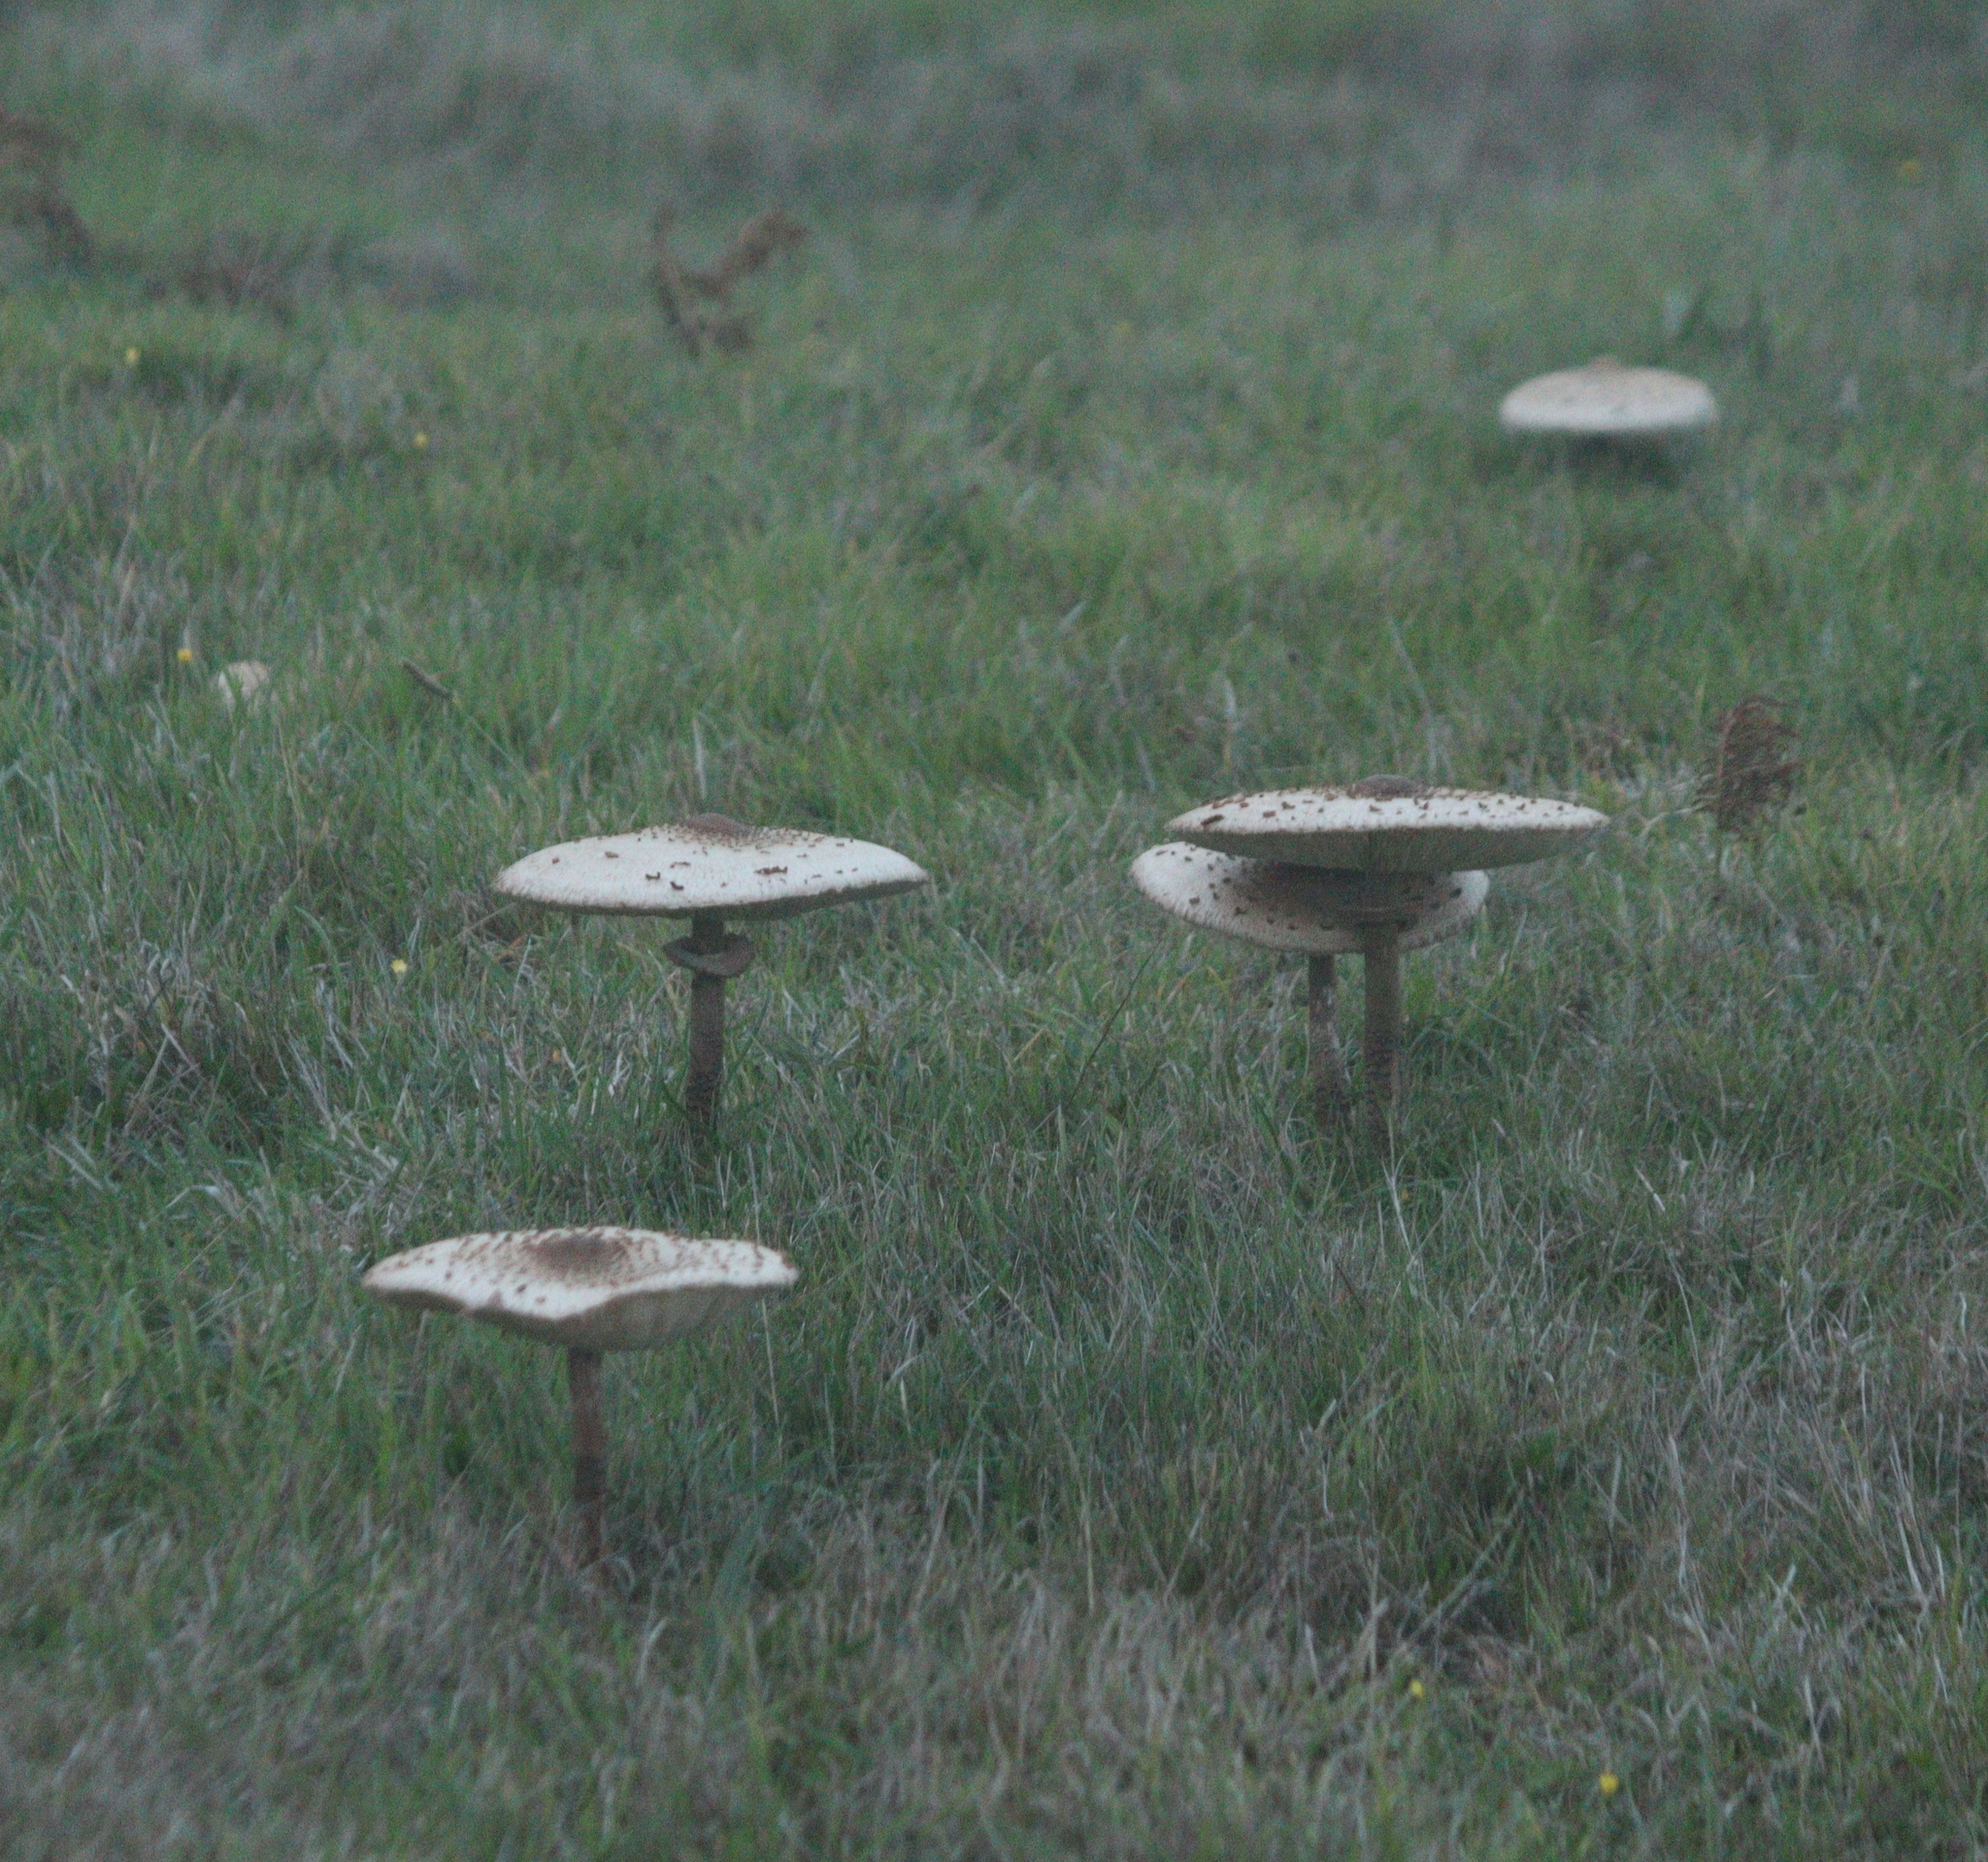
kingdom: Fungi
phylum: Basidiomycota
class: Agaricomycetes
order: Agaricales
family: Agaricaceae
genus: Macrolepiota
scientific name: Macrolepiota procera
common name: Parasol
